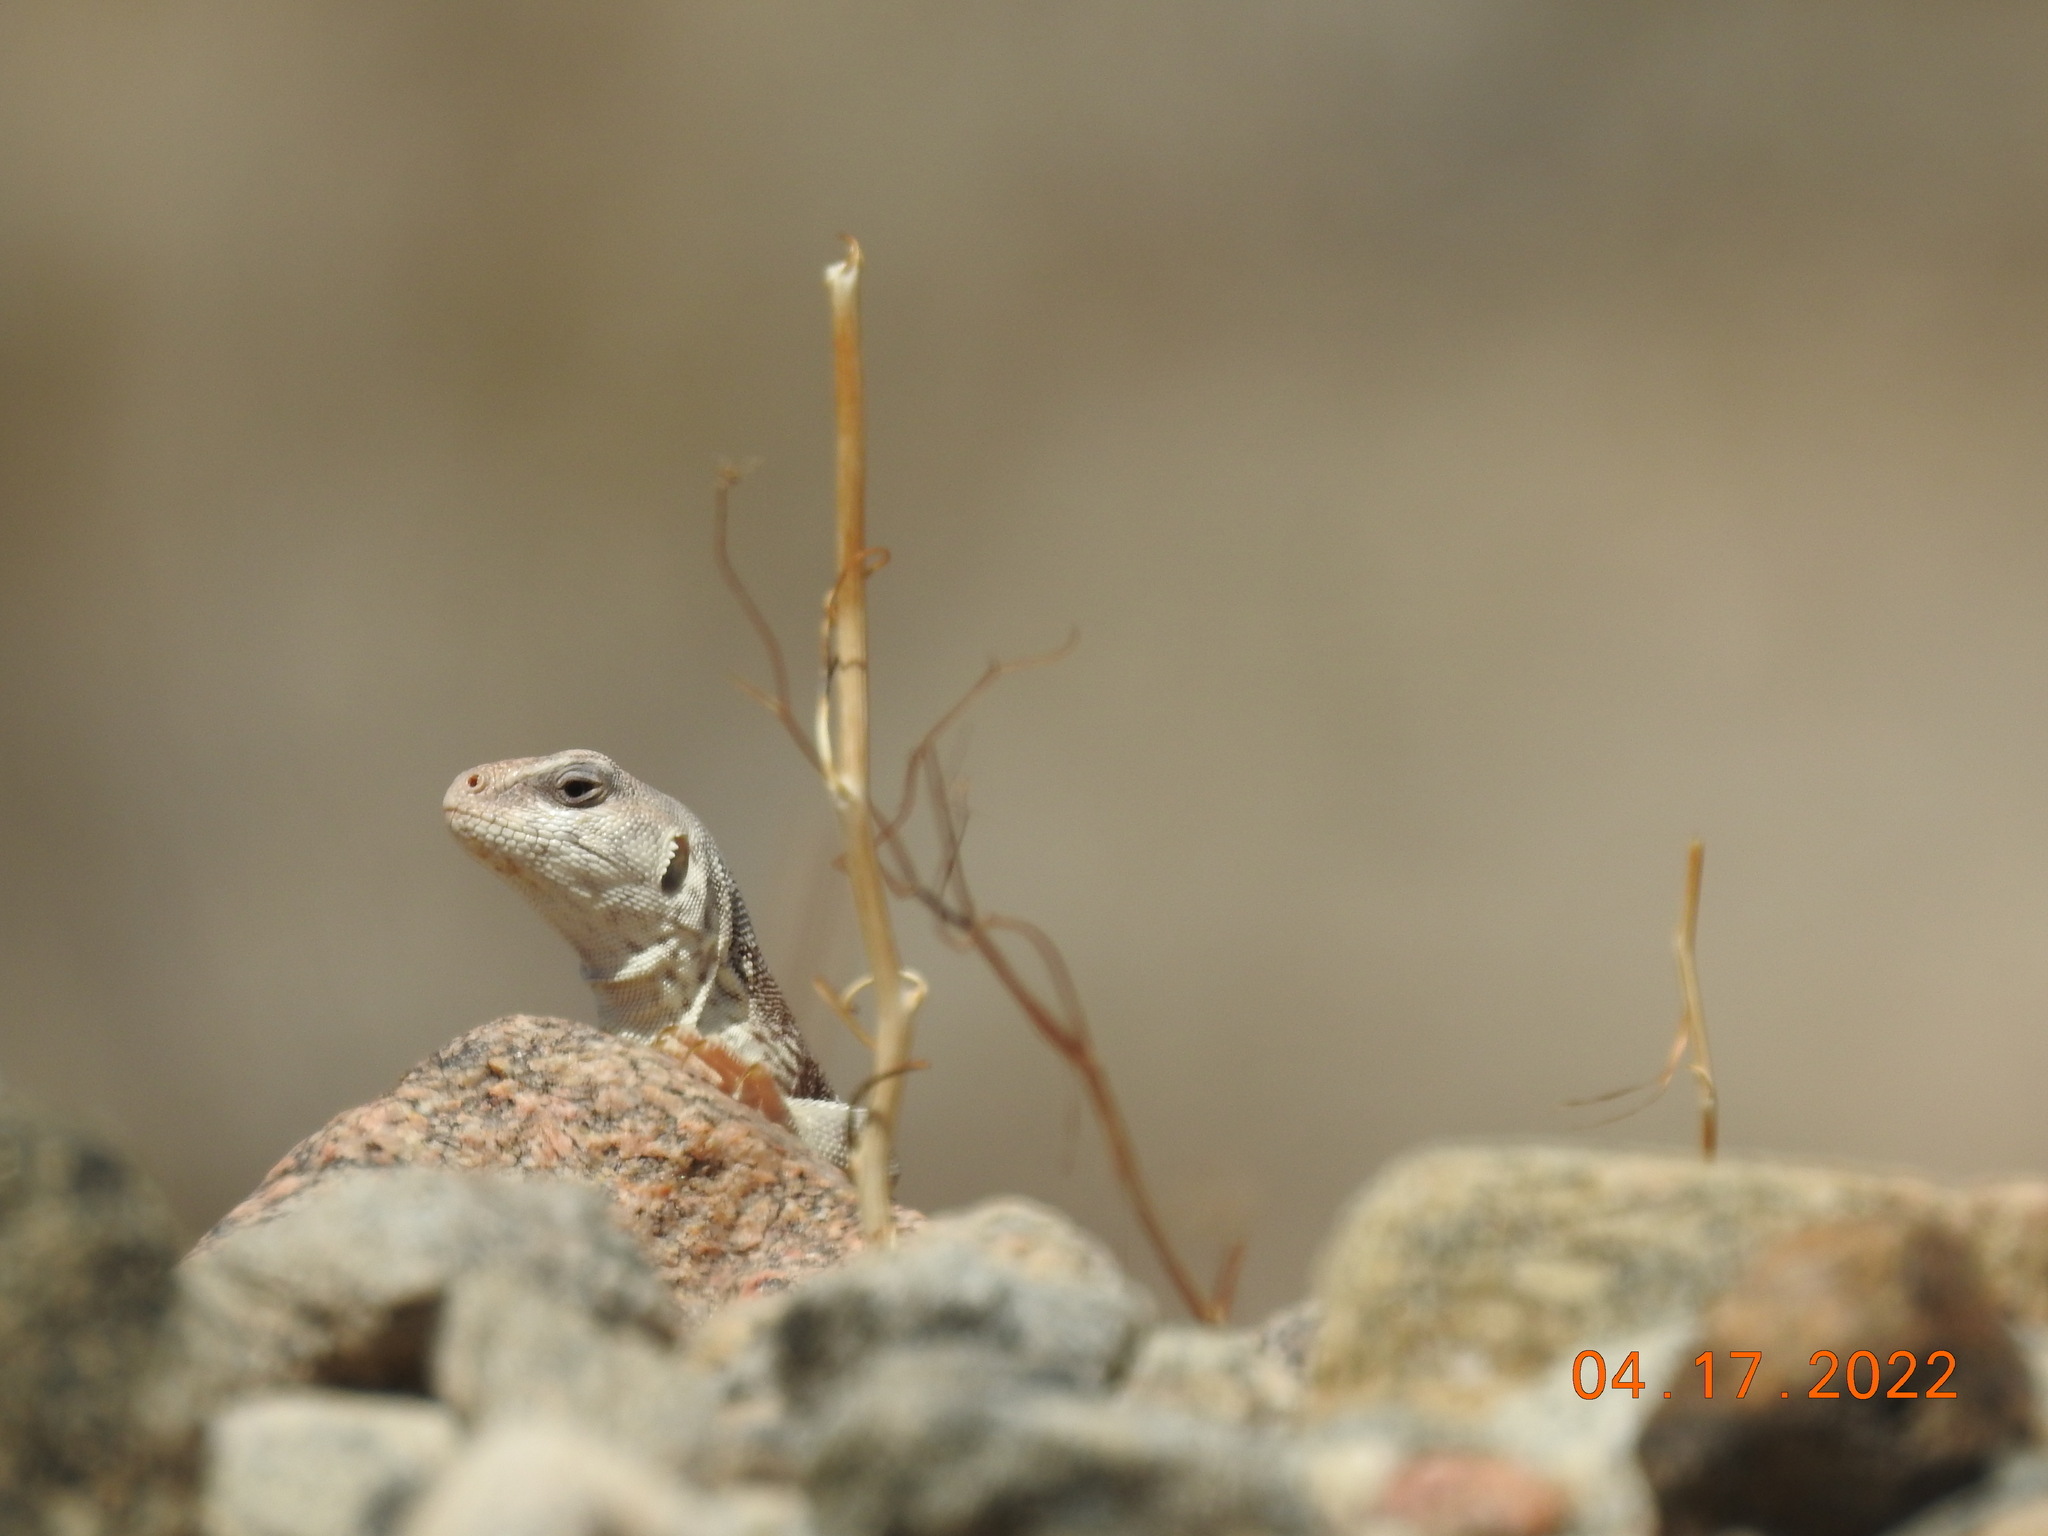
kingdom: Animalia
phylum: Chordata
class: Squamata
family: Iguanidae
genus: Dipsosaurus
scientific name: Dipsosaurus dorsalis
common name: Desert iguana
